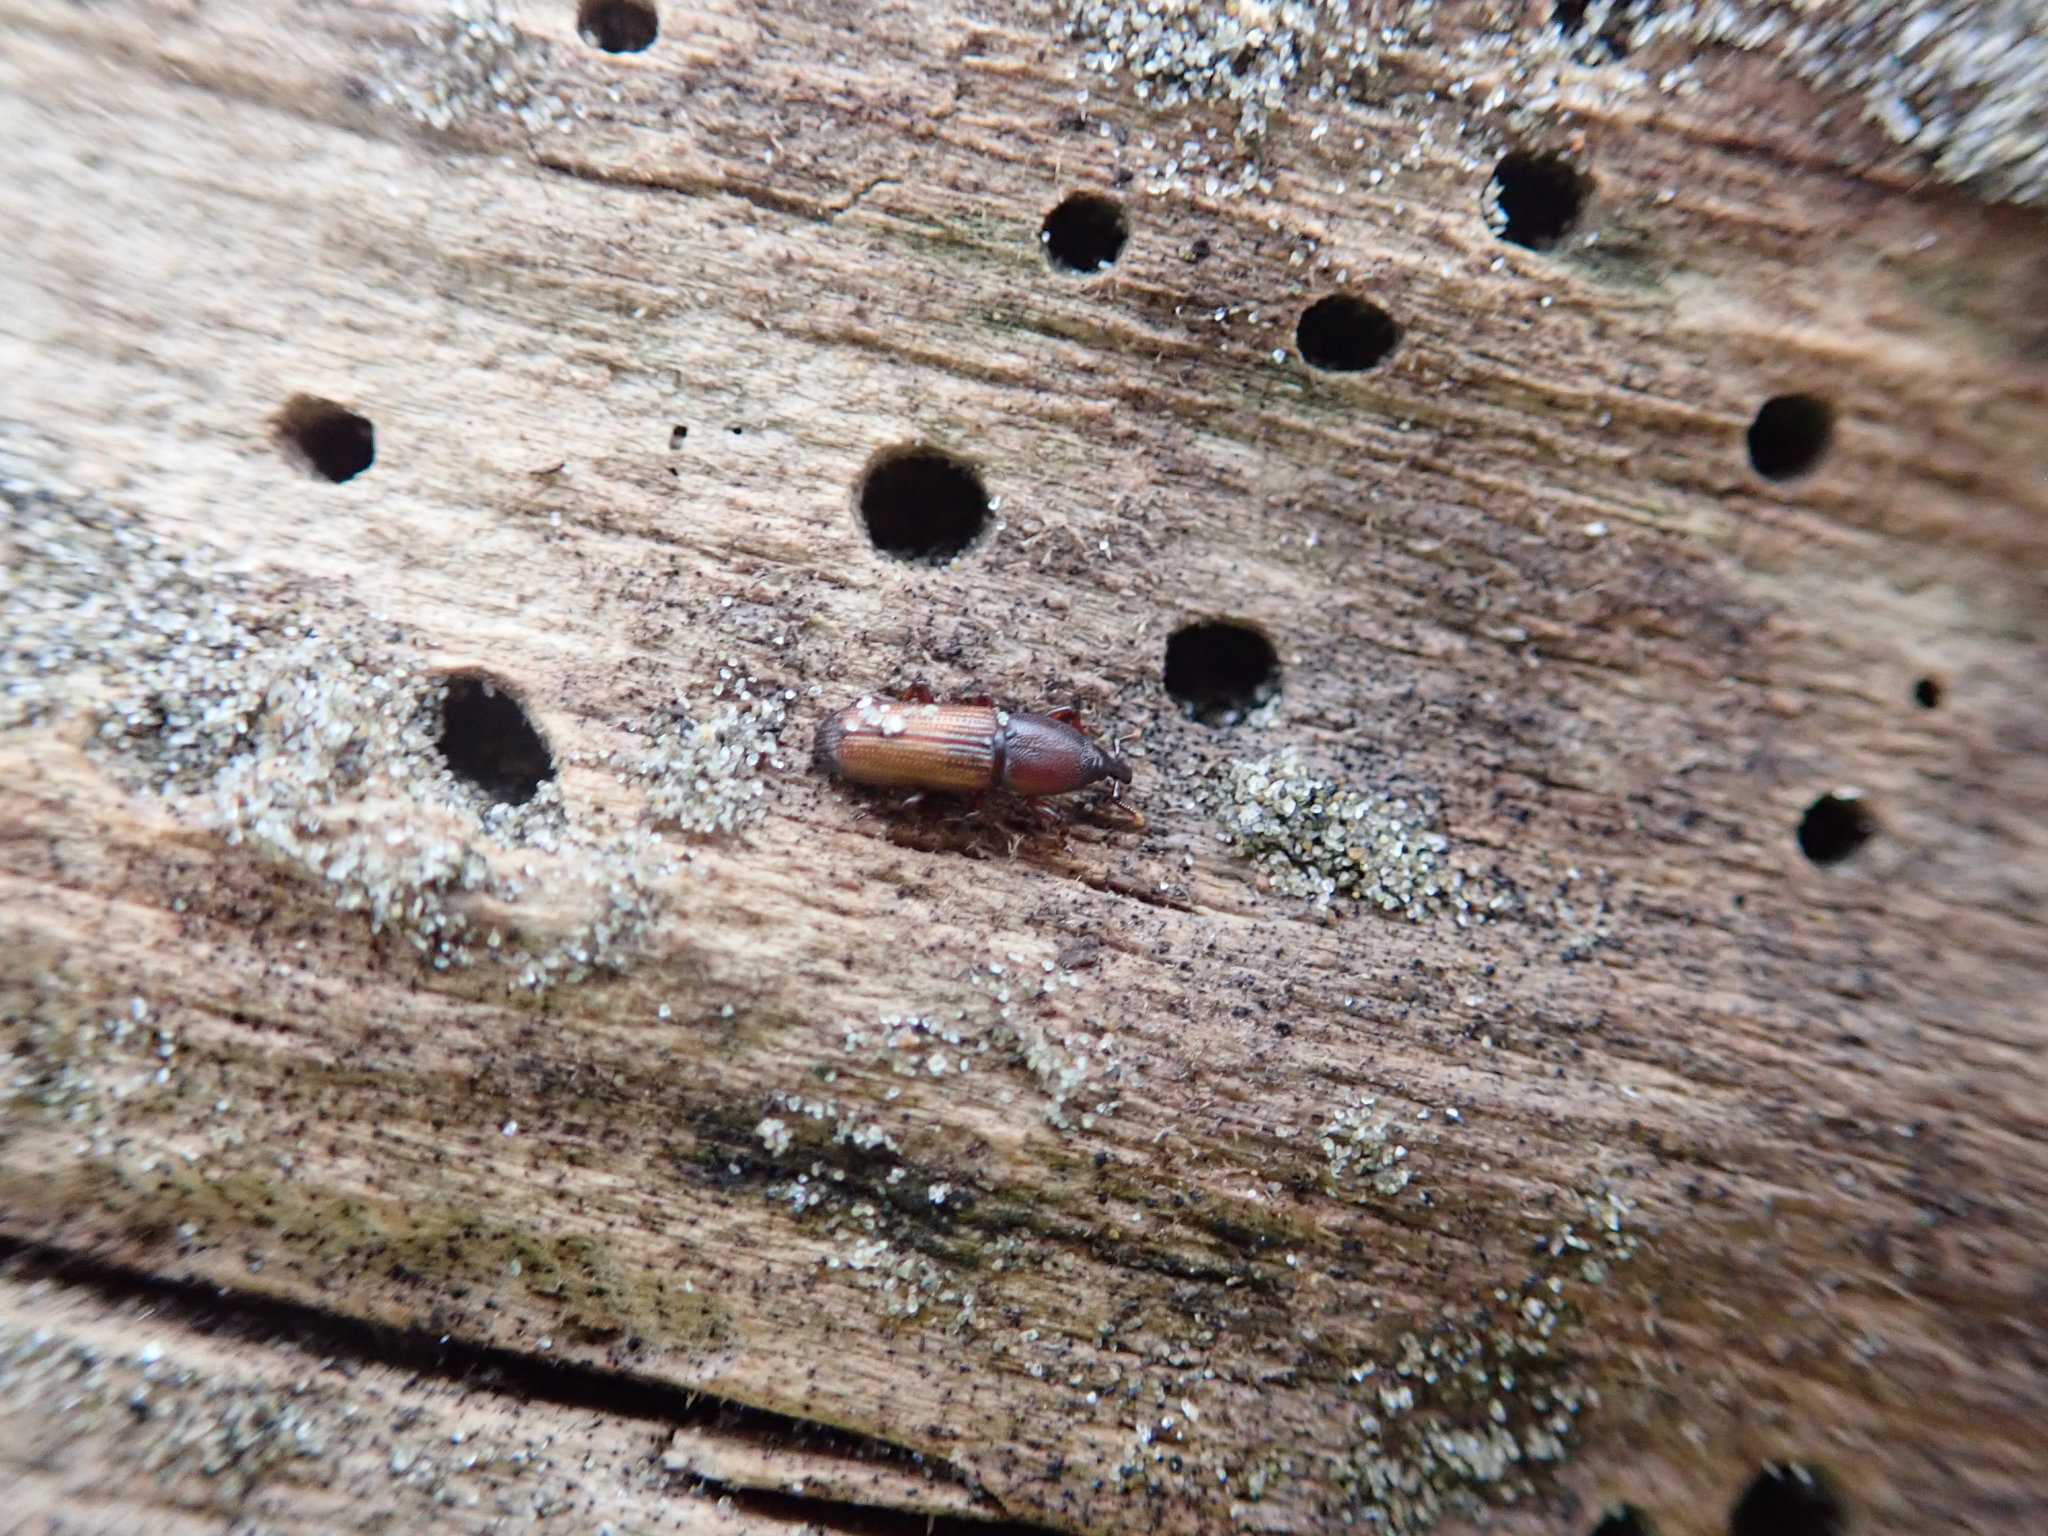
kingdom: Animalia
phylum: Arthropoda
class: Insecta
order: Coleoptera
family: Curculionidae
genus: Mesites
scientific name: Mesites pallidipennis
